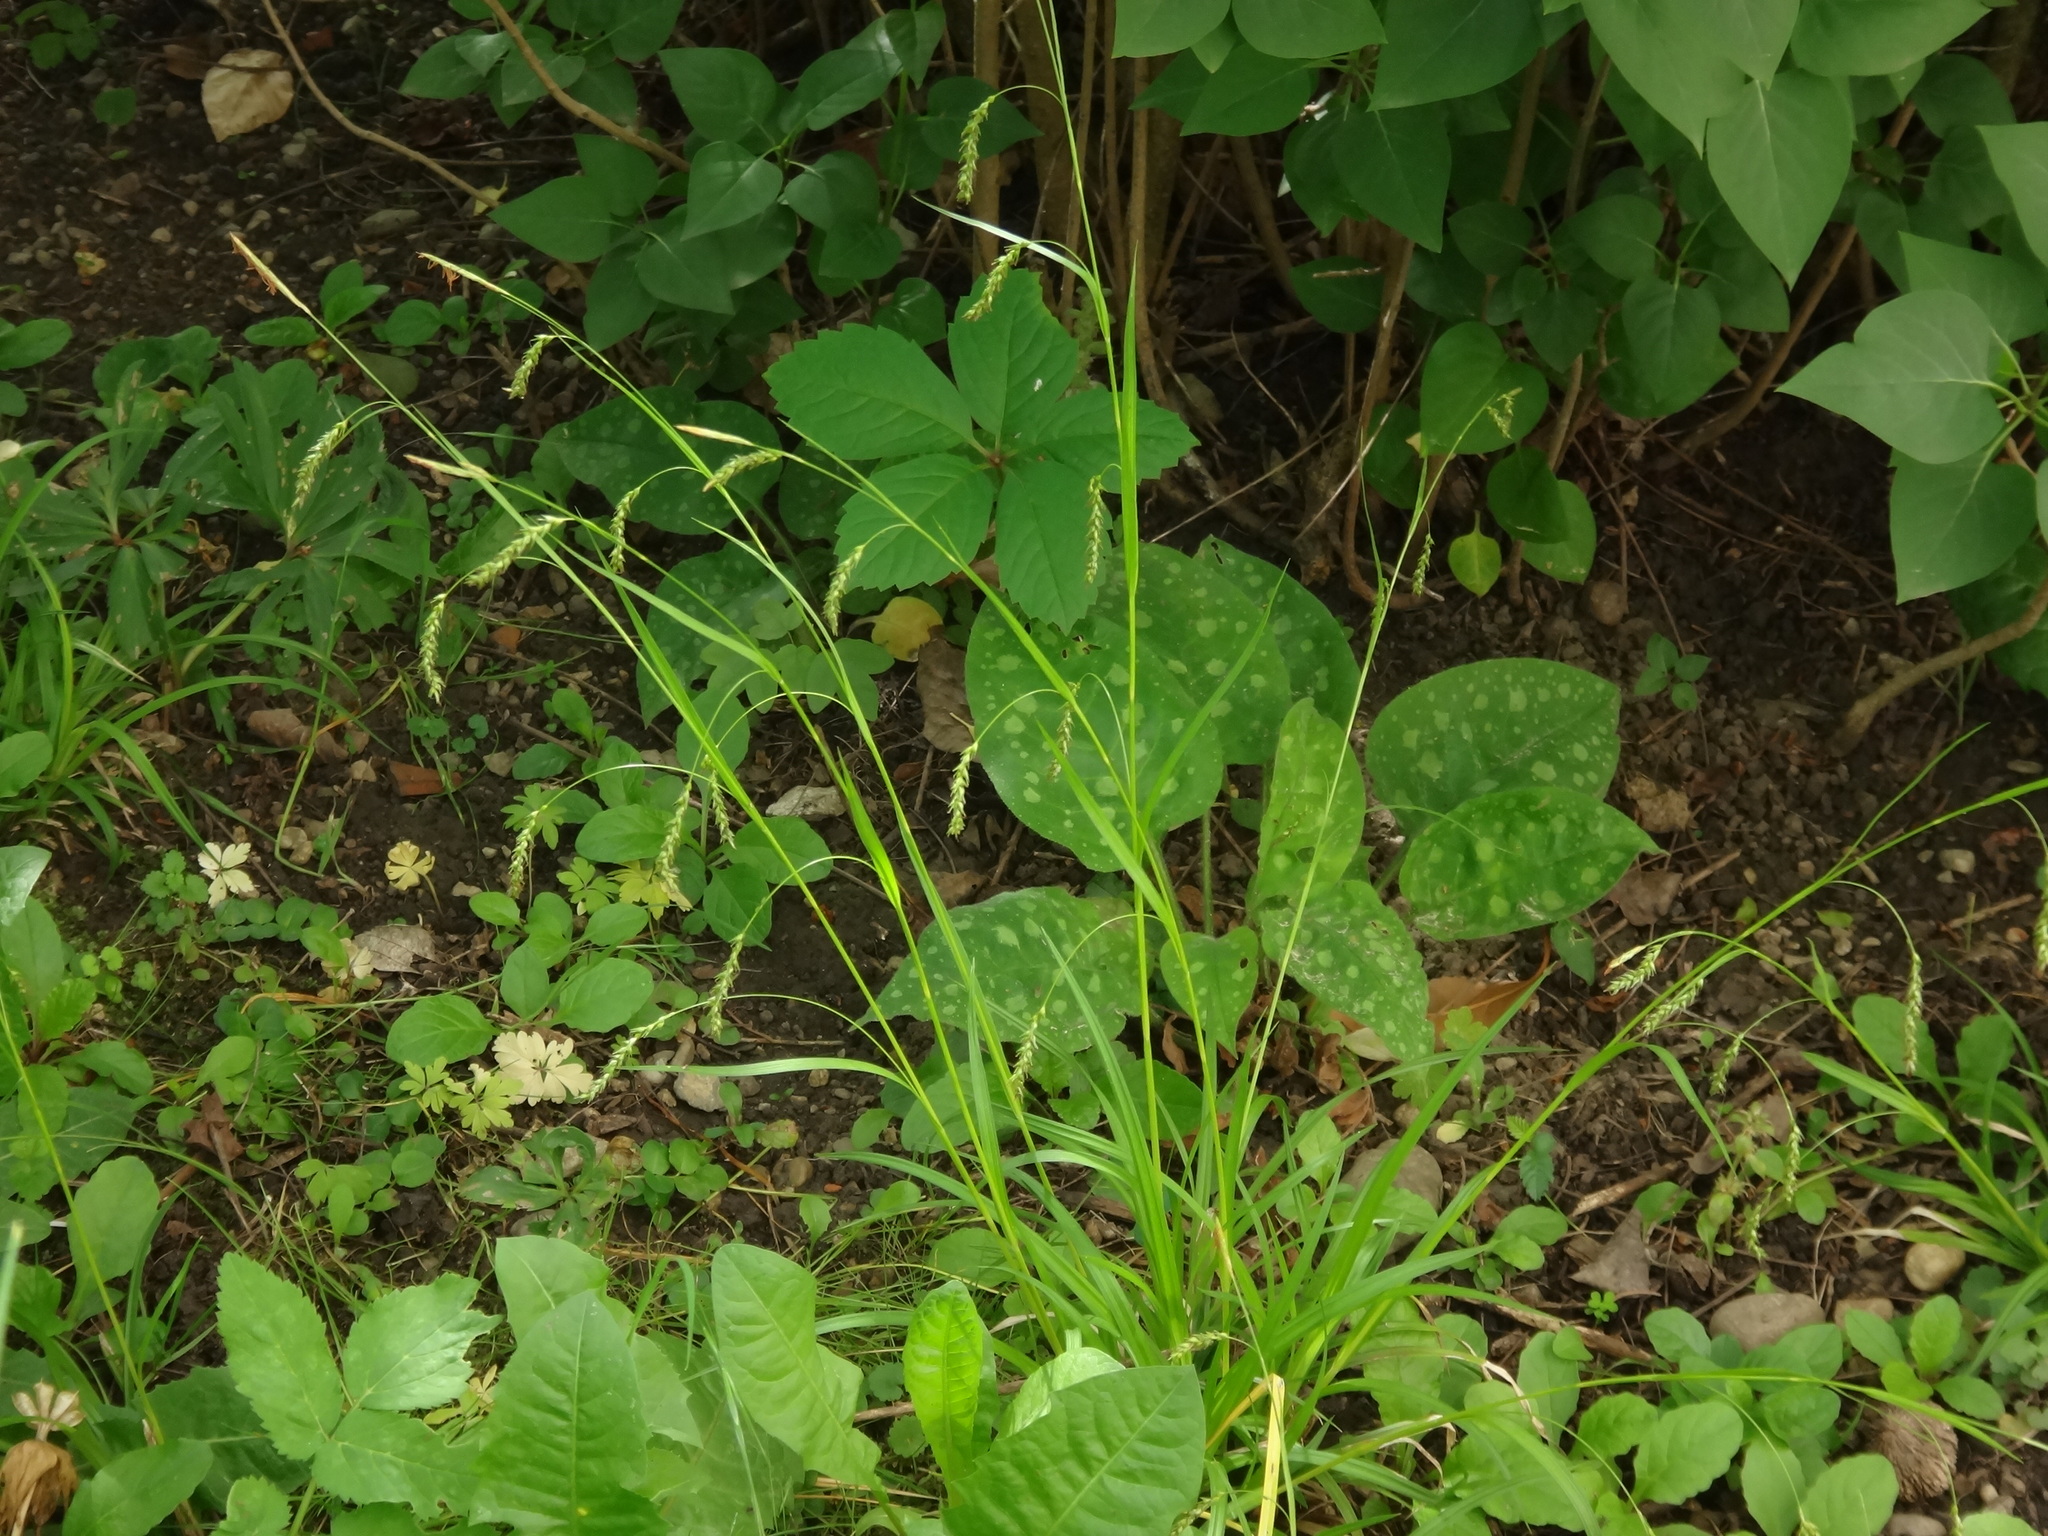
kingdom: Plantae
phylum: Tracheophyta
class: Liliopsida
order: Poales
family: Cyperaceae
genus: Carex
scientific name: Carex sylvatica
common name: Wood-sedge
